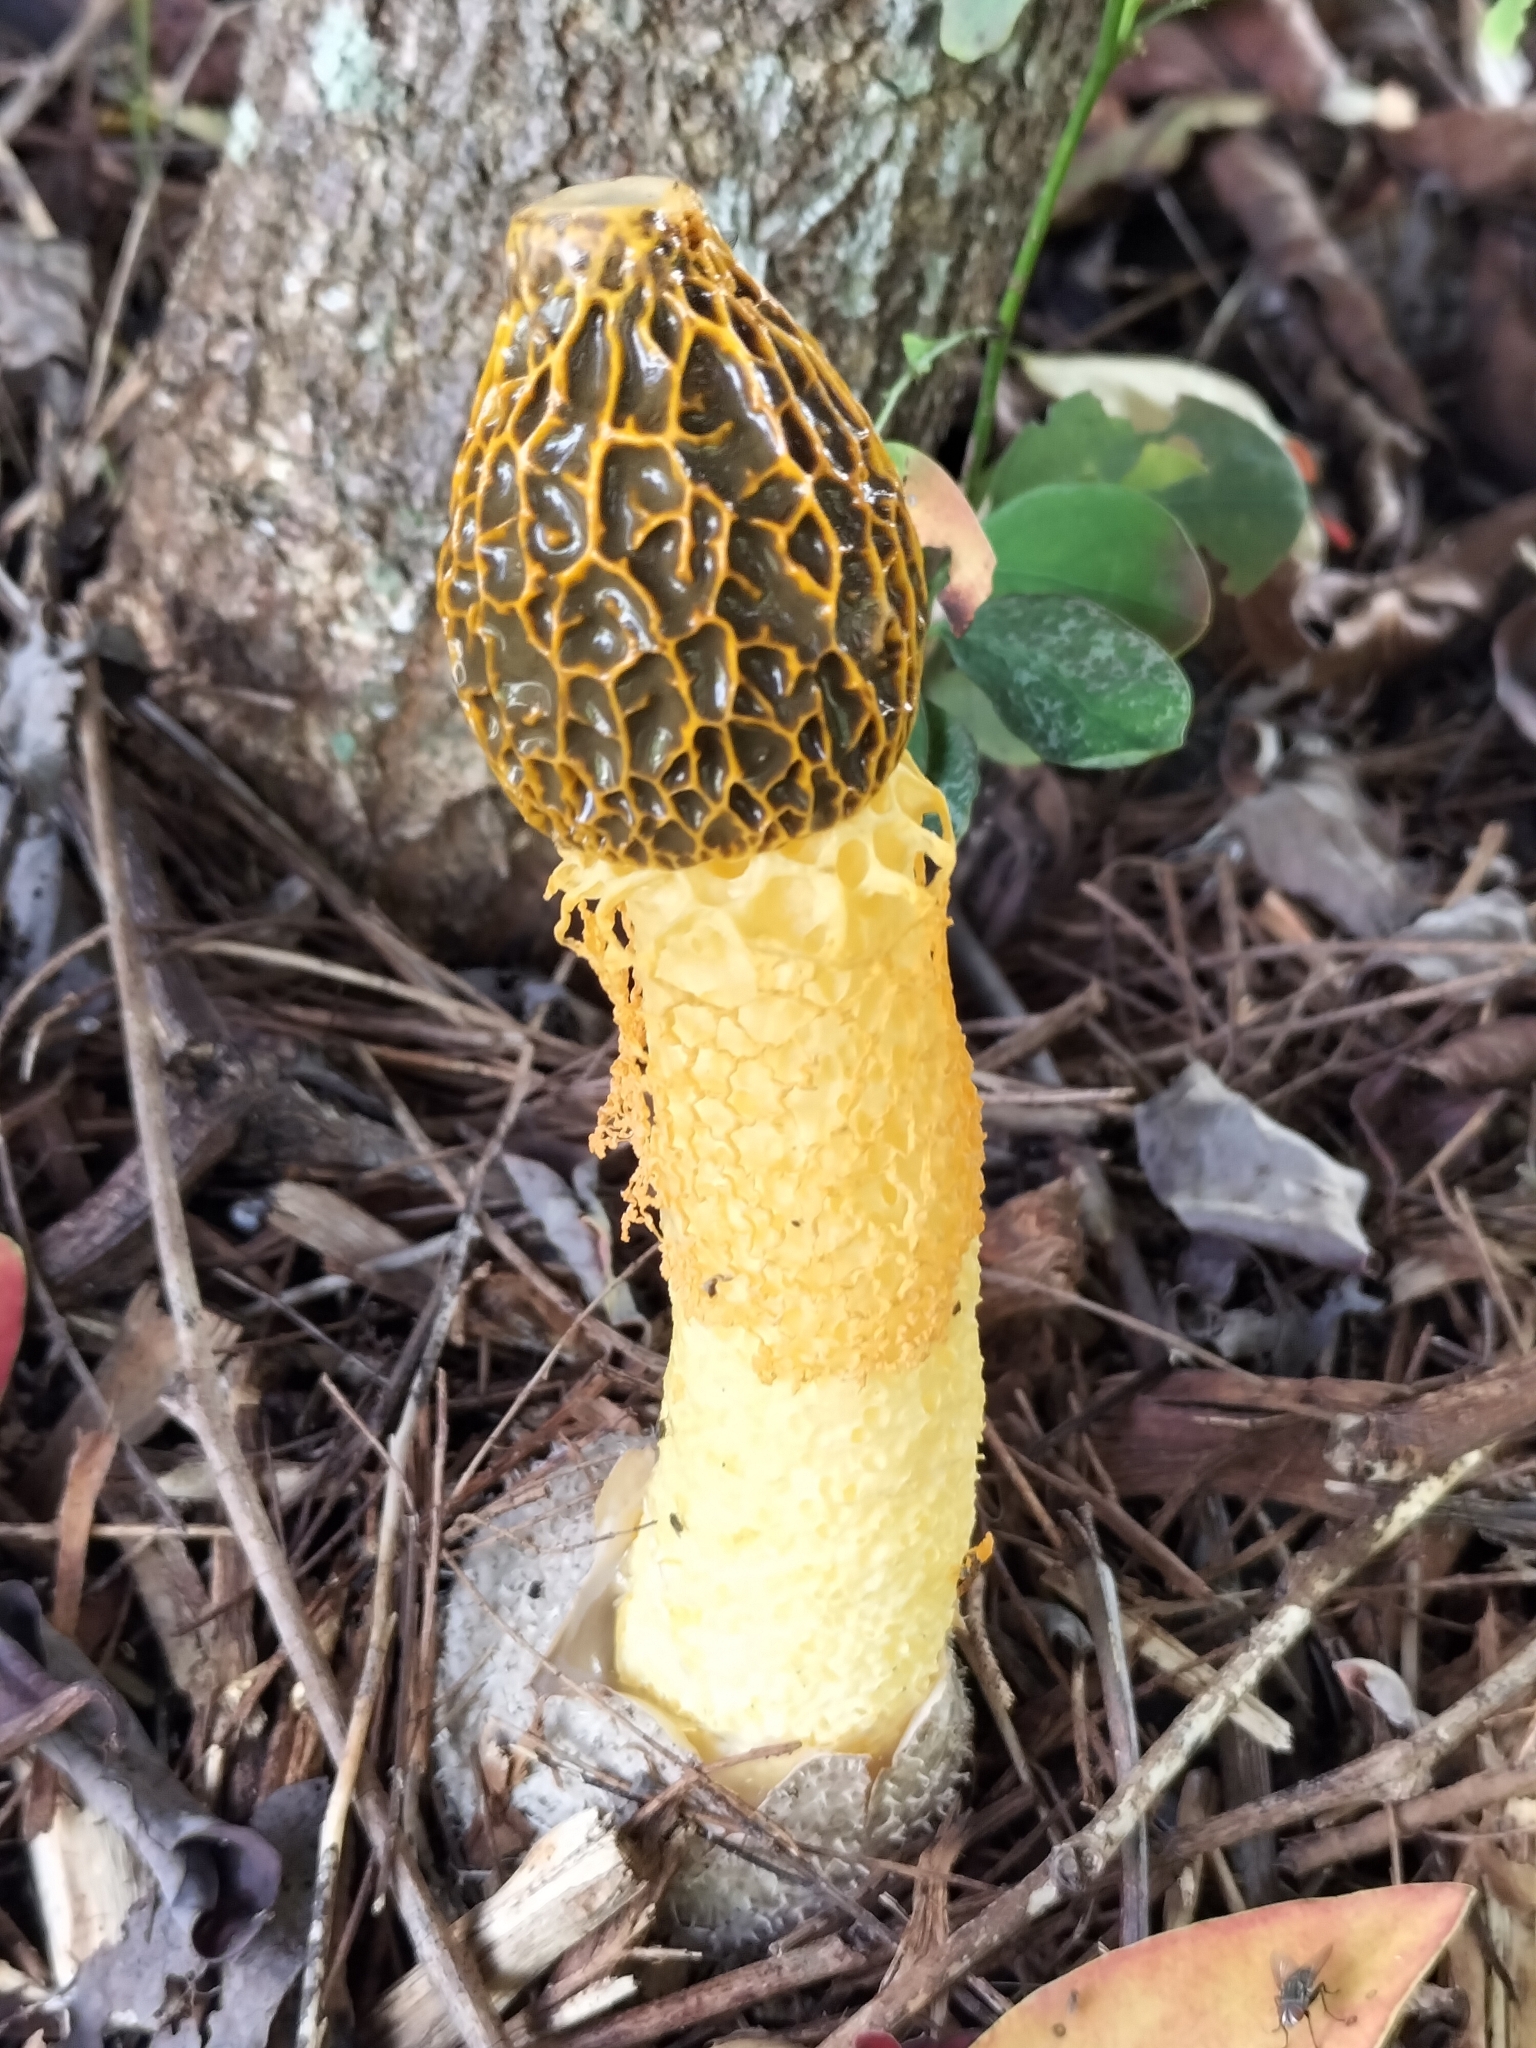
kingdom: Fungi
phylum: Basidiomycota
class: Agaricomycetes
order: Phallales
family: Phallaceae
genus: Phallus
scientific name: Phallus multicolor
